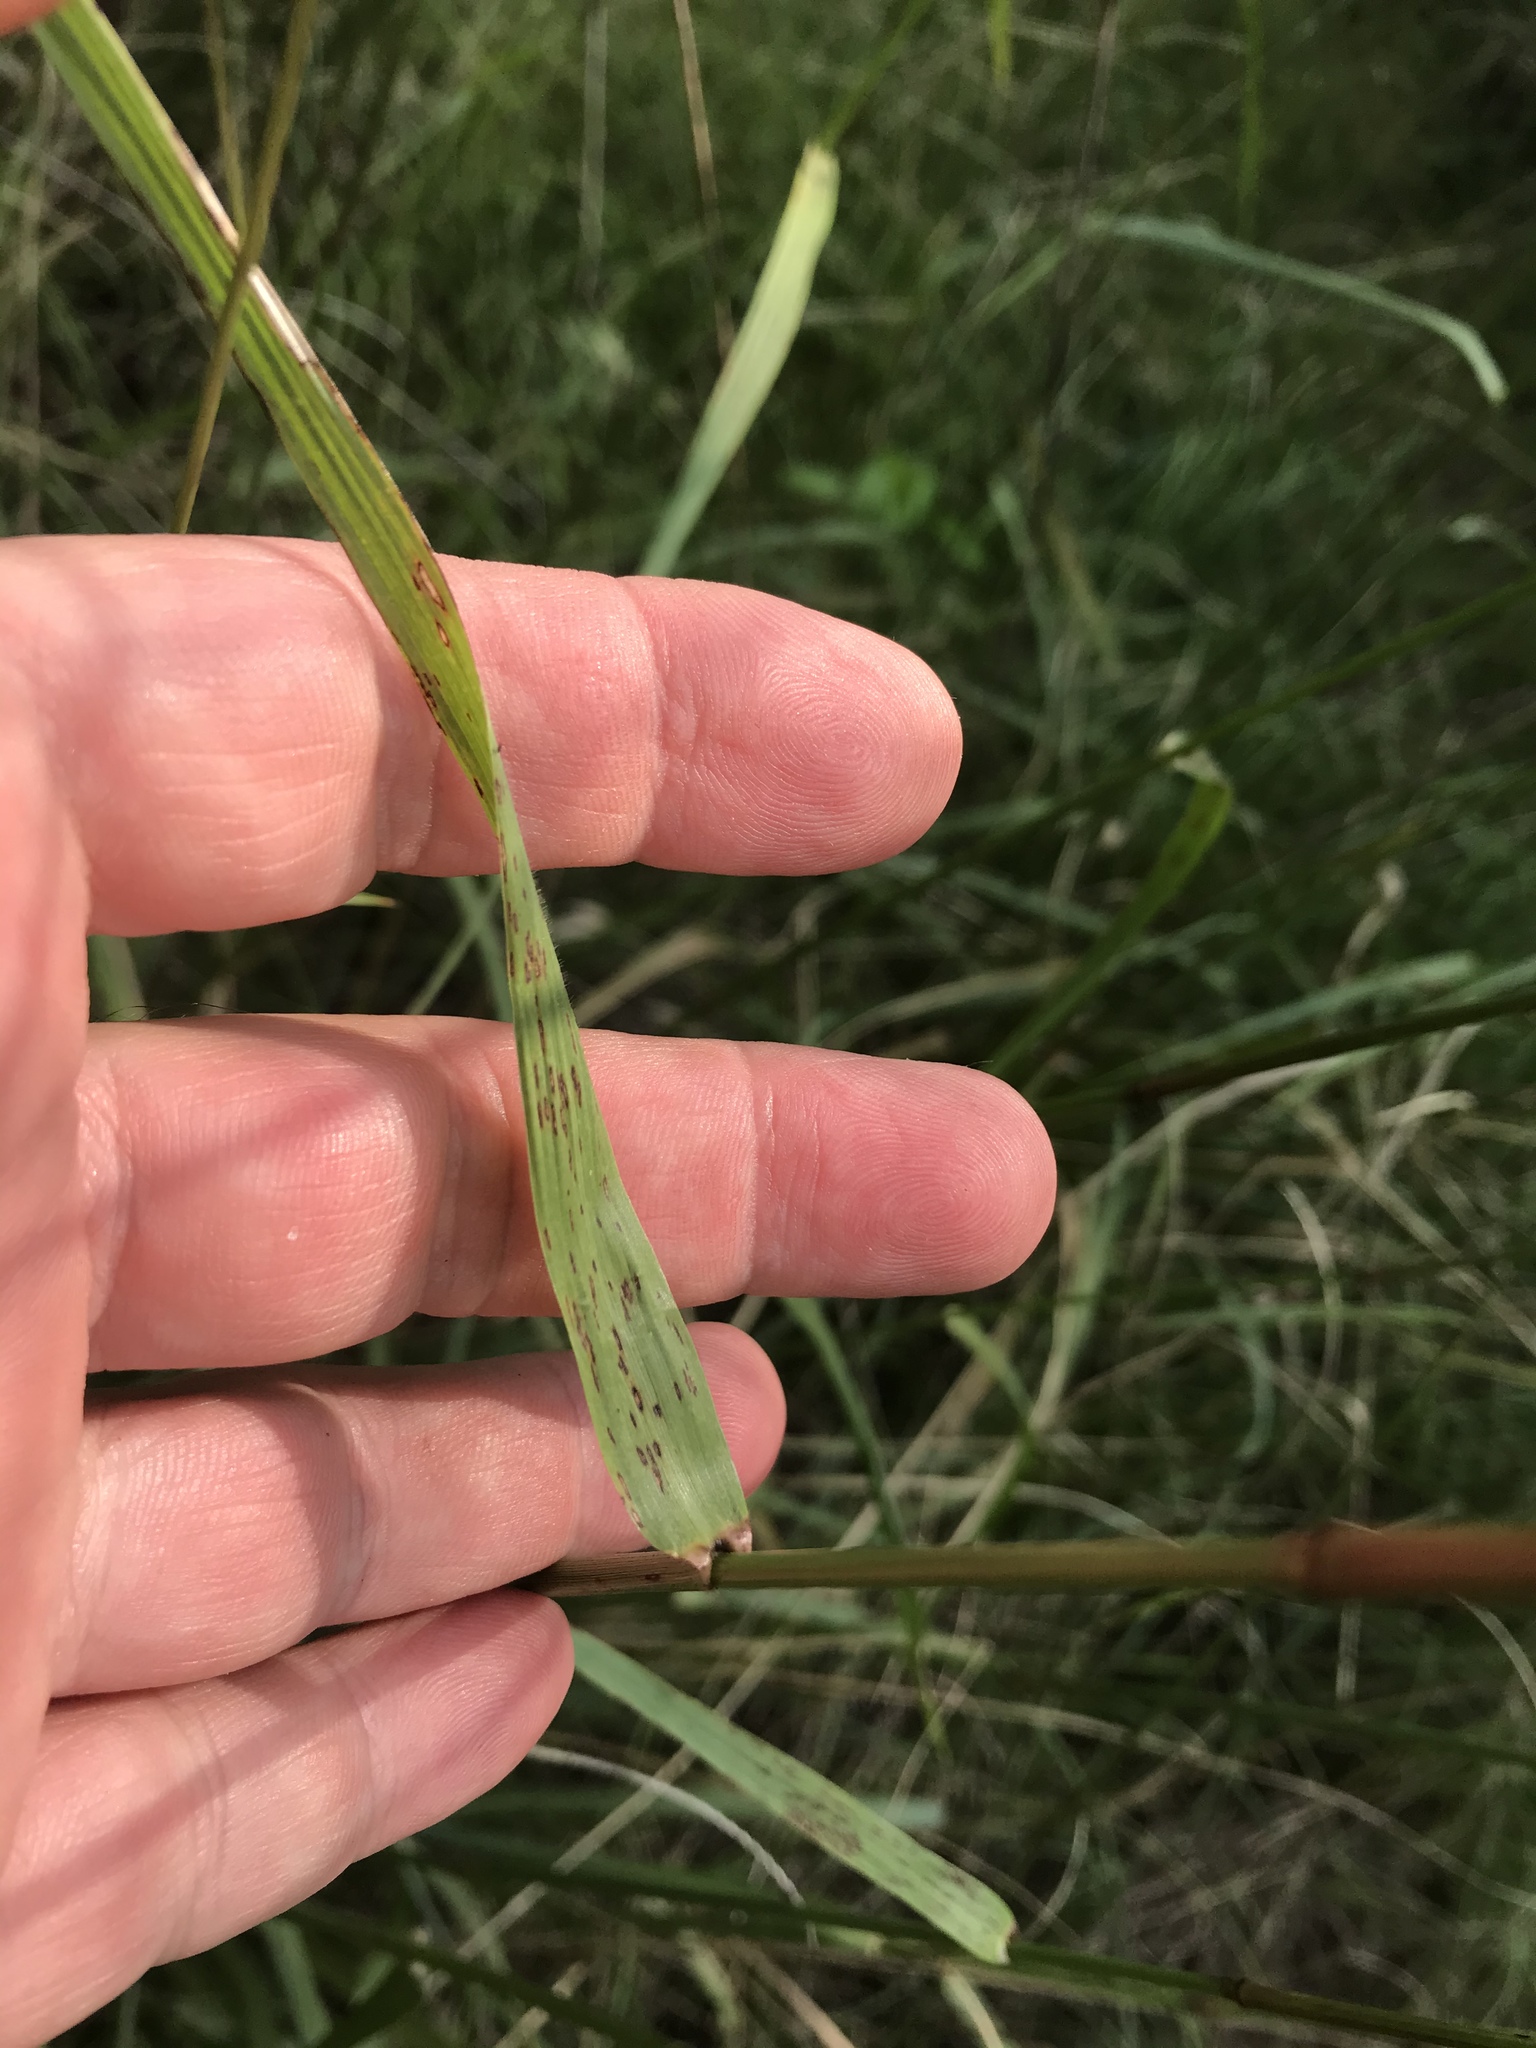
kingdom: Plantae
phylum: Tracheophyta
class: Liliopsida
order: Poales
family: Poaceae
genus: Tridens
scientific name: Tridens flavus
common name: Purpletop
